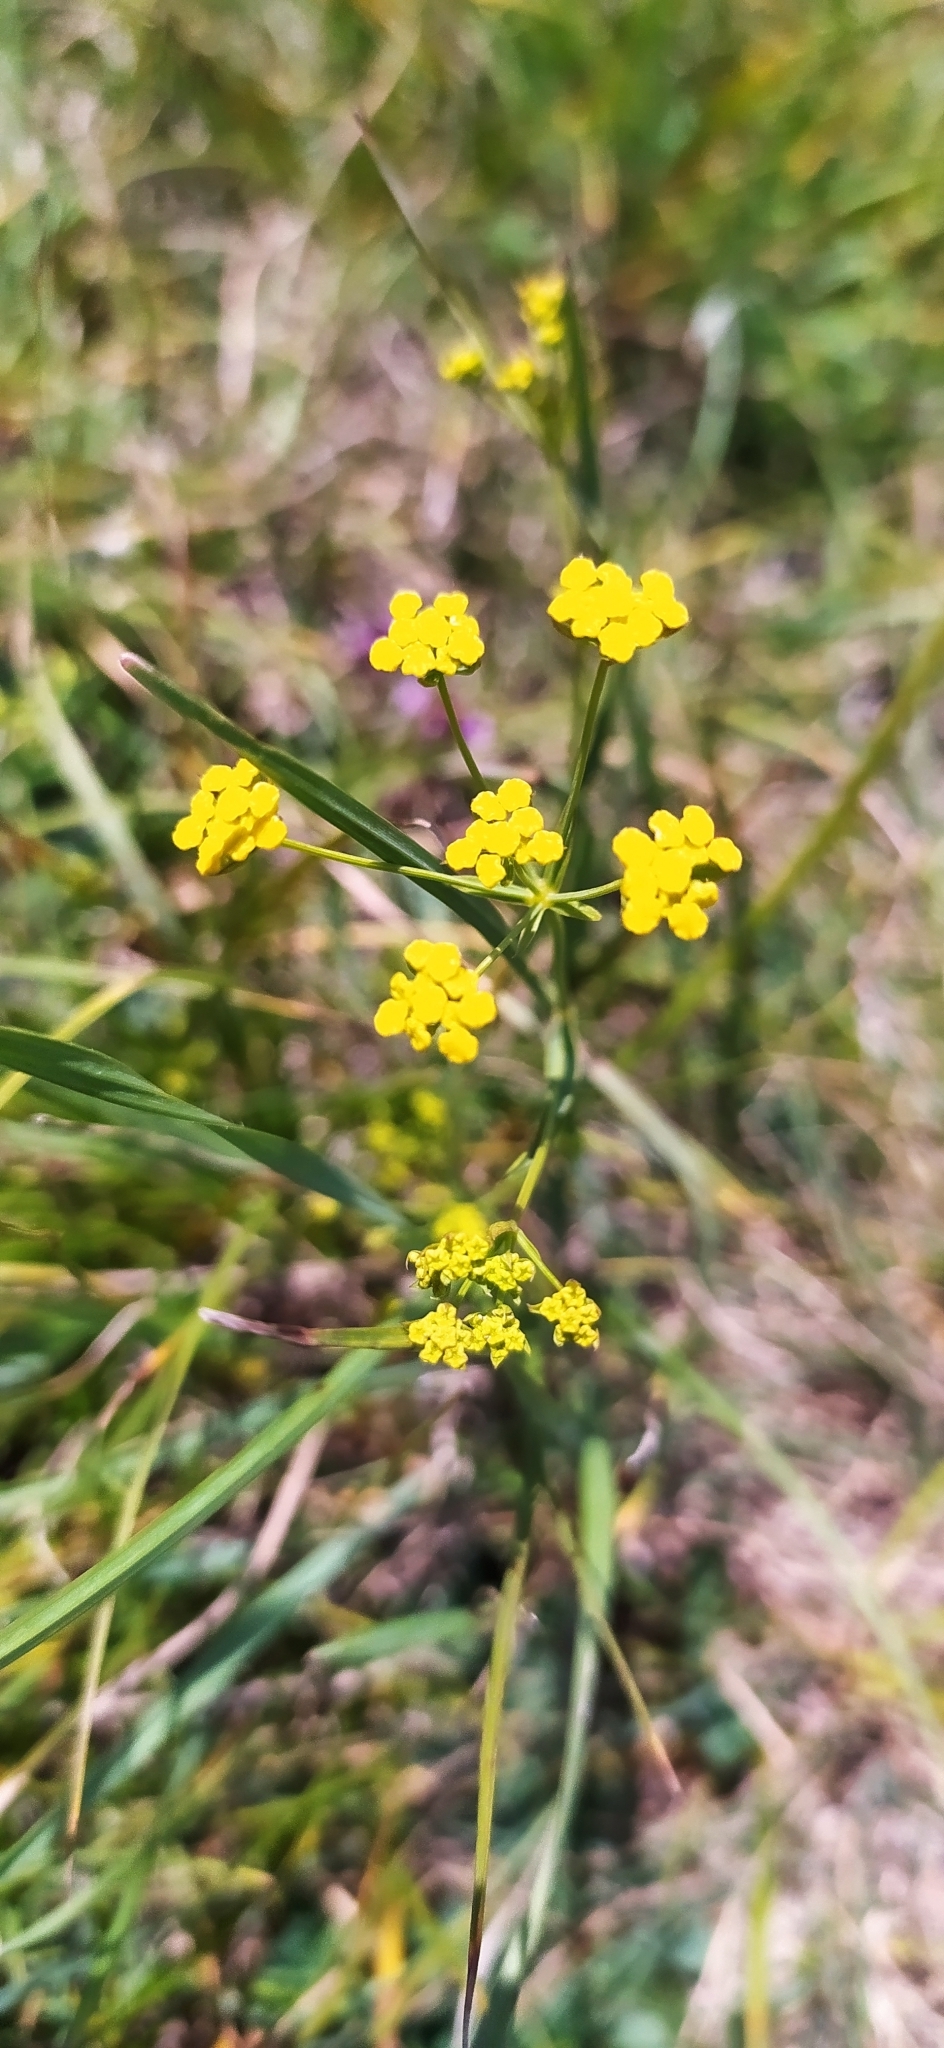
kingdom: Plantae
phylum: Tracheophyta
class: Magnoliopsida
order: Apiales
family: Apiaceae
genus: Bupleurum
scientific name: Bupleurum falcatum
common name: Sickle-leaved hare's-ear
